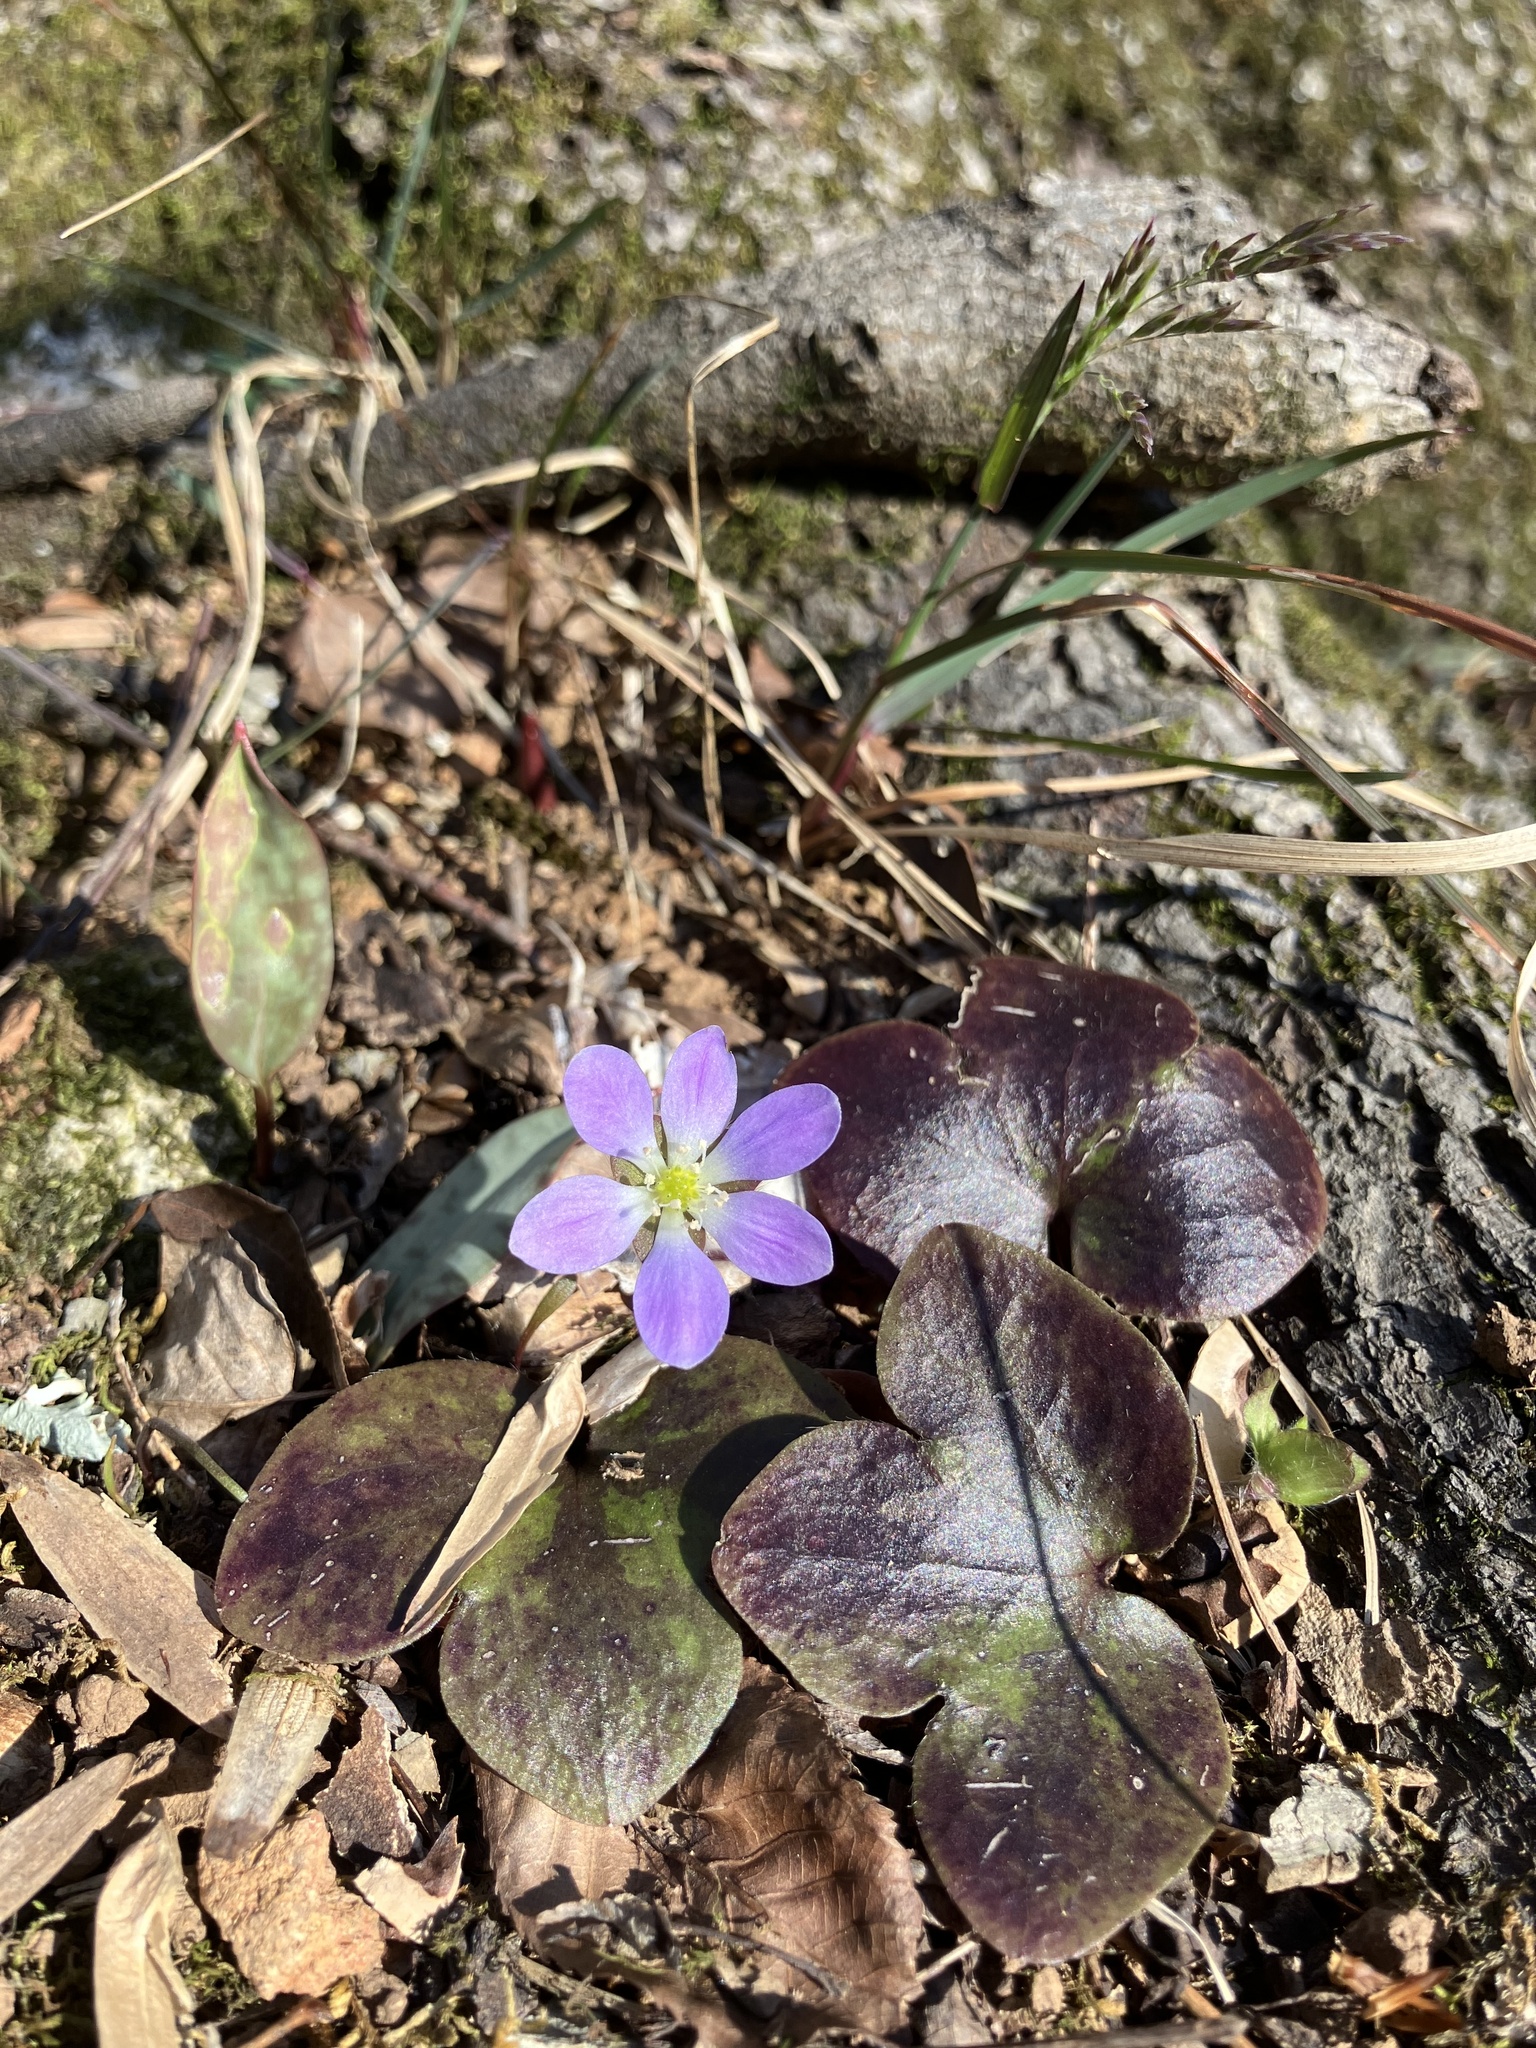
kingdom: Plantae
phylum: Tracheophyta
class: Magnoliopsida
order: Ranunculales
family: Ranunculaceae
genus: Hepatica
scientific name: Hepatica americana
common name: American hepatica
